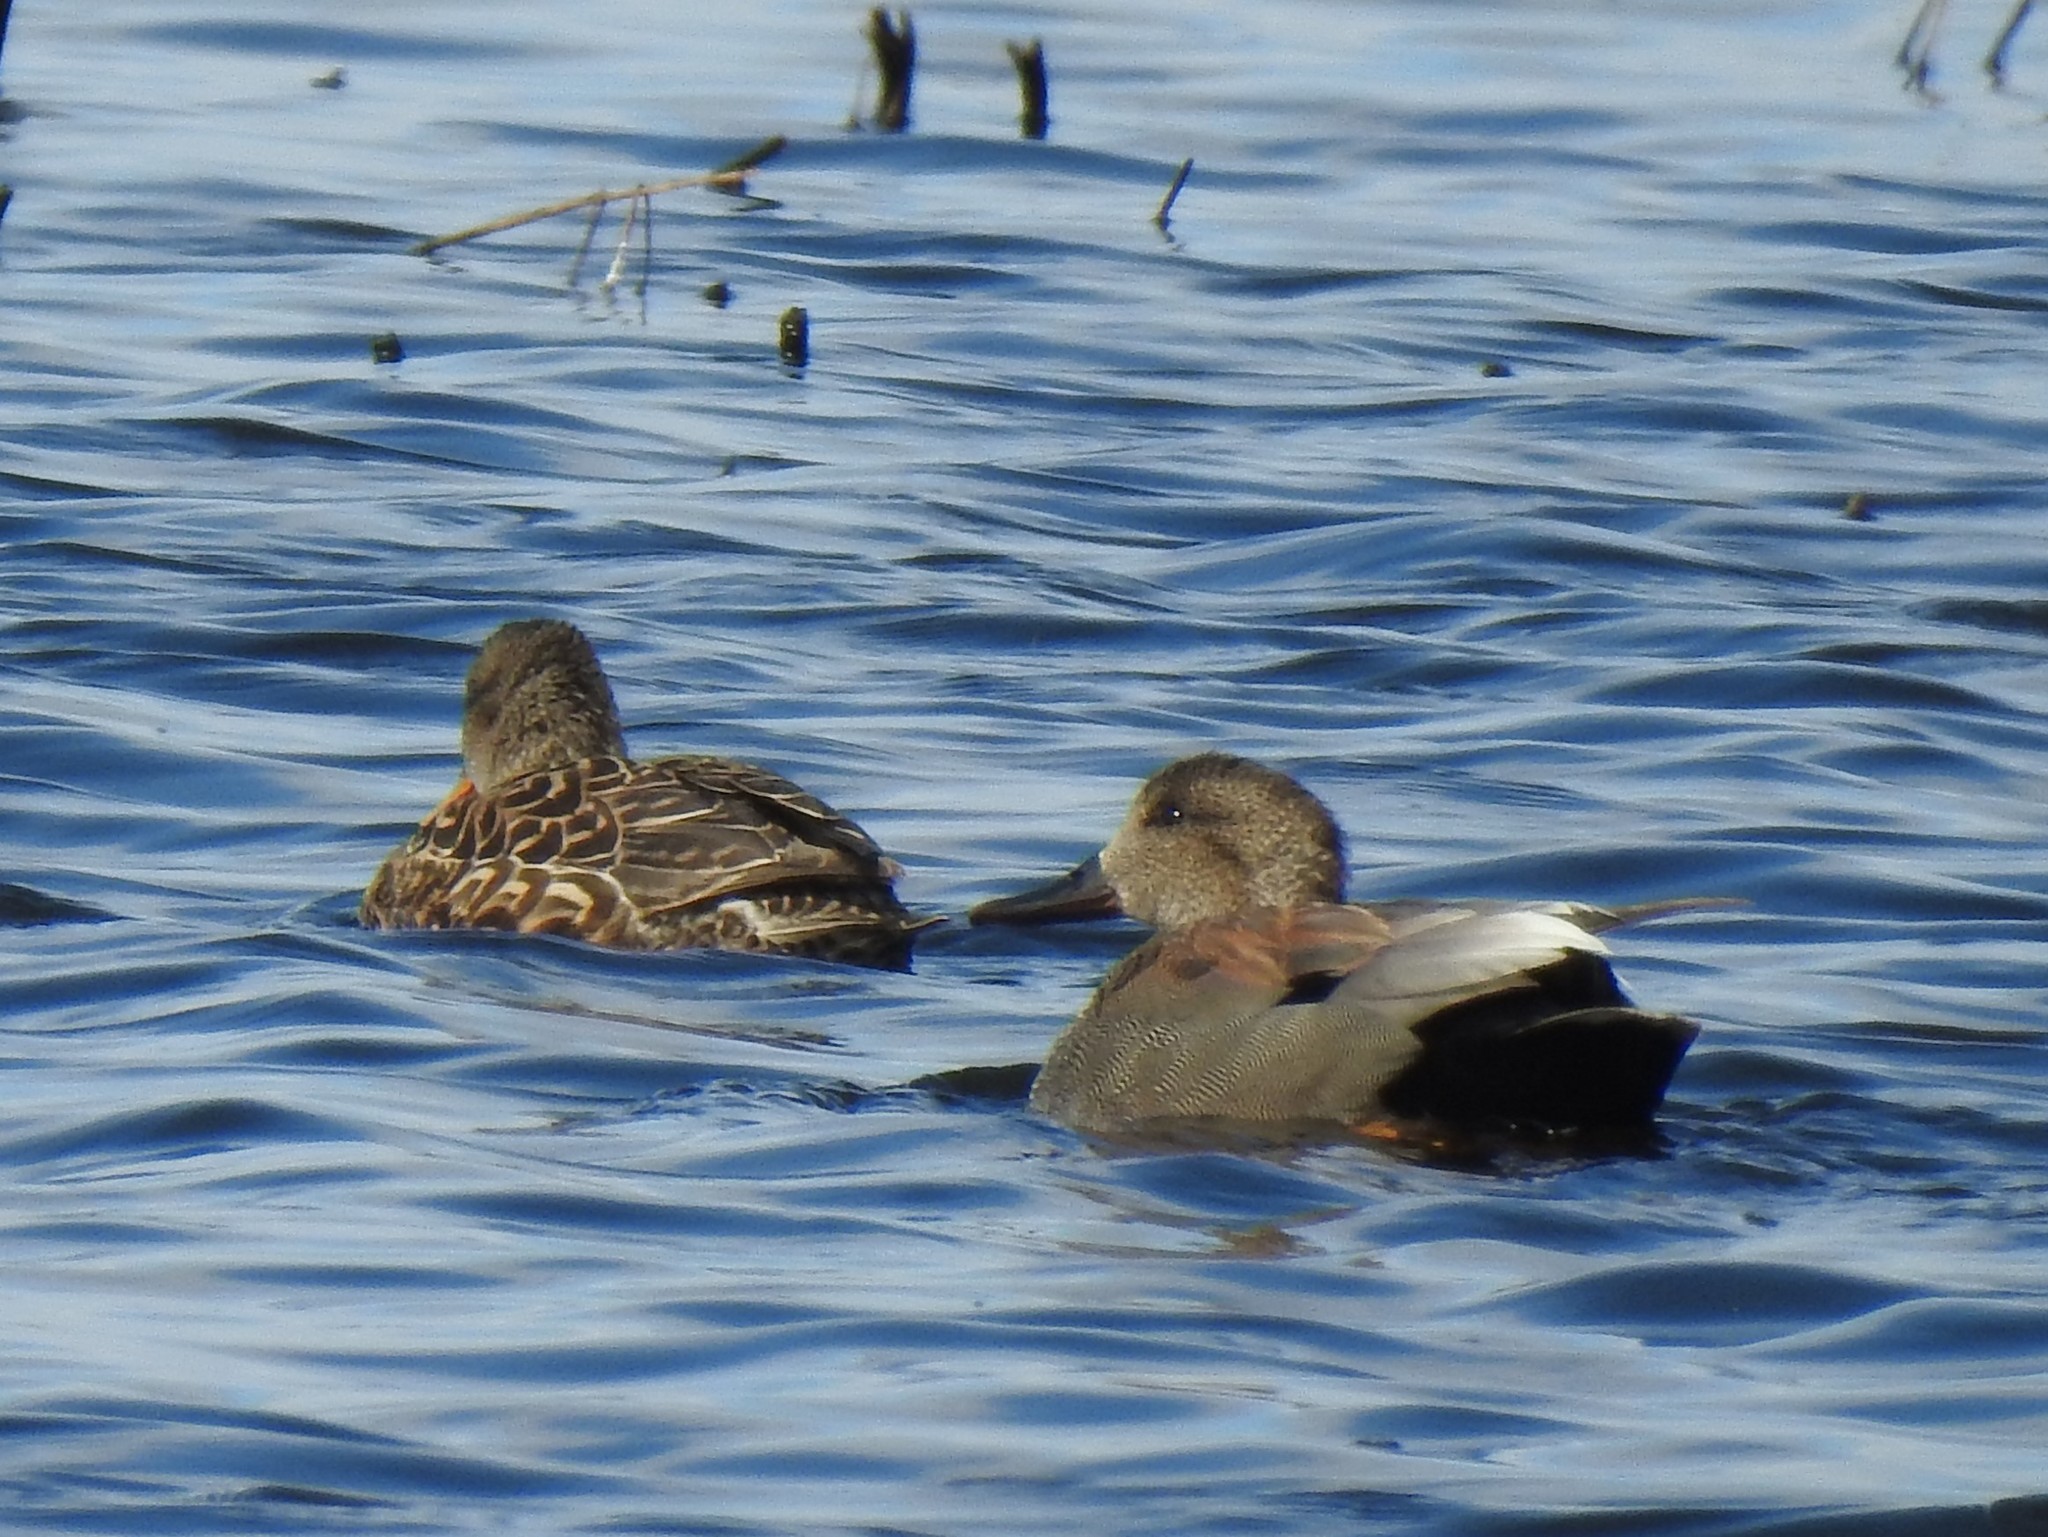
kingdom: Animalia
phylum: Chordata
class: Aves
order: Anseriformes
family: Anatidae
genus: Mareca
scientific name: Mareca strepera
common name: Gadwall
